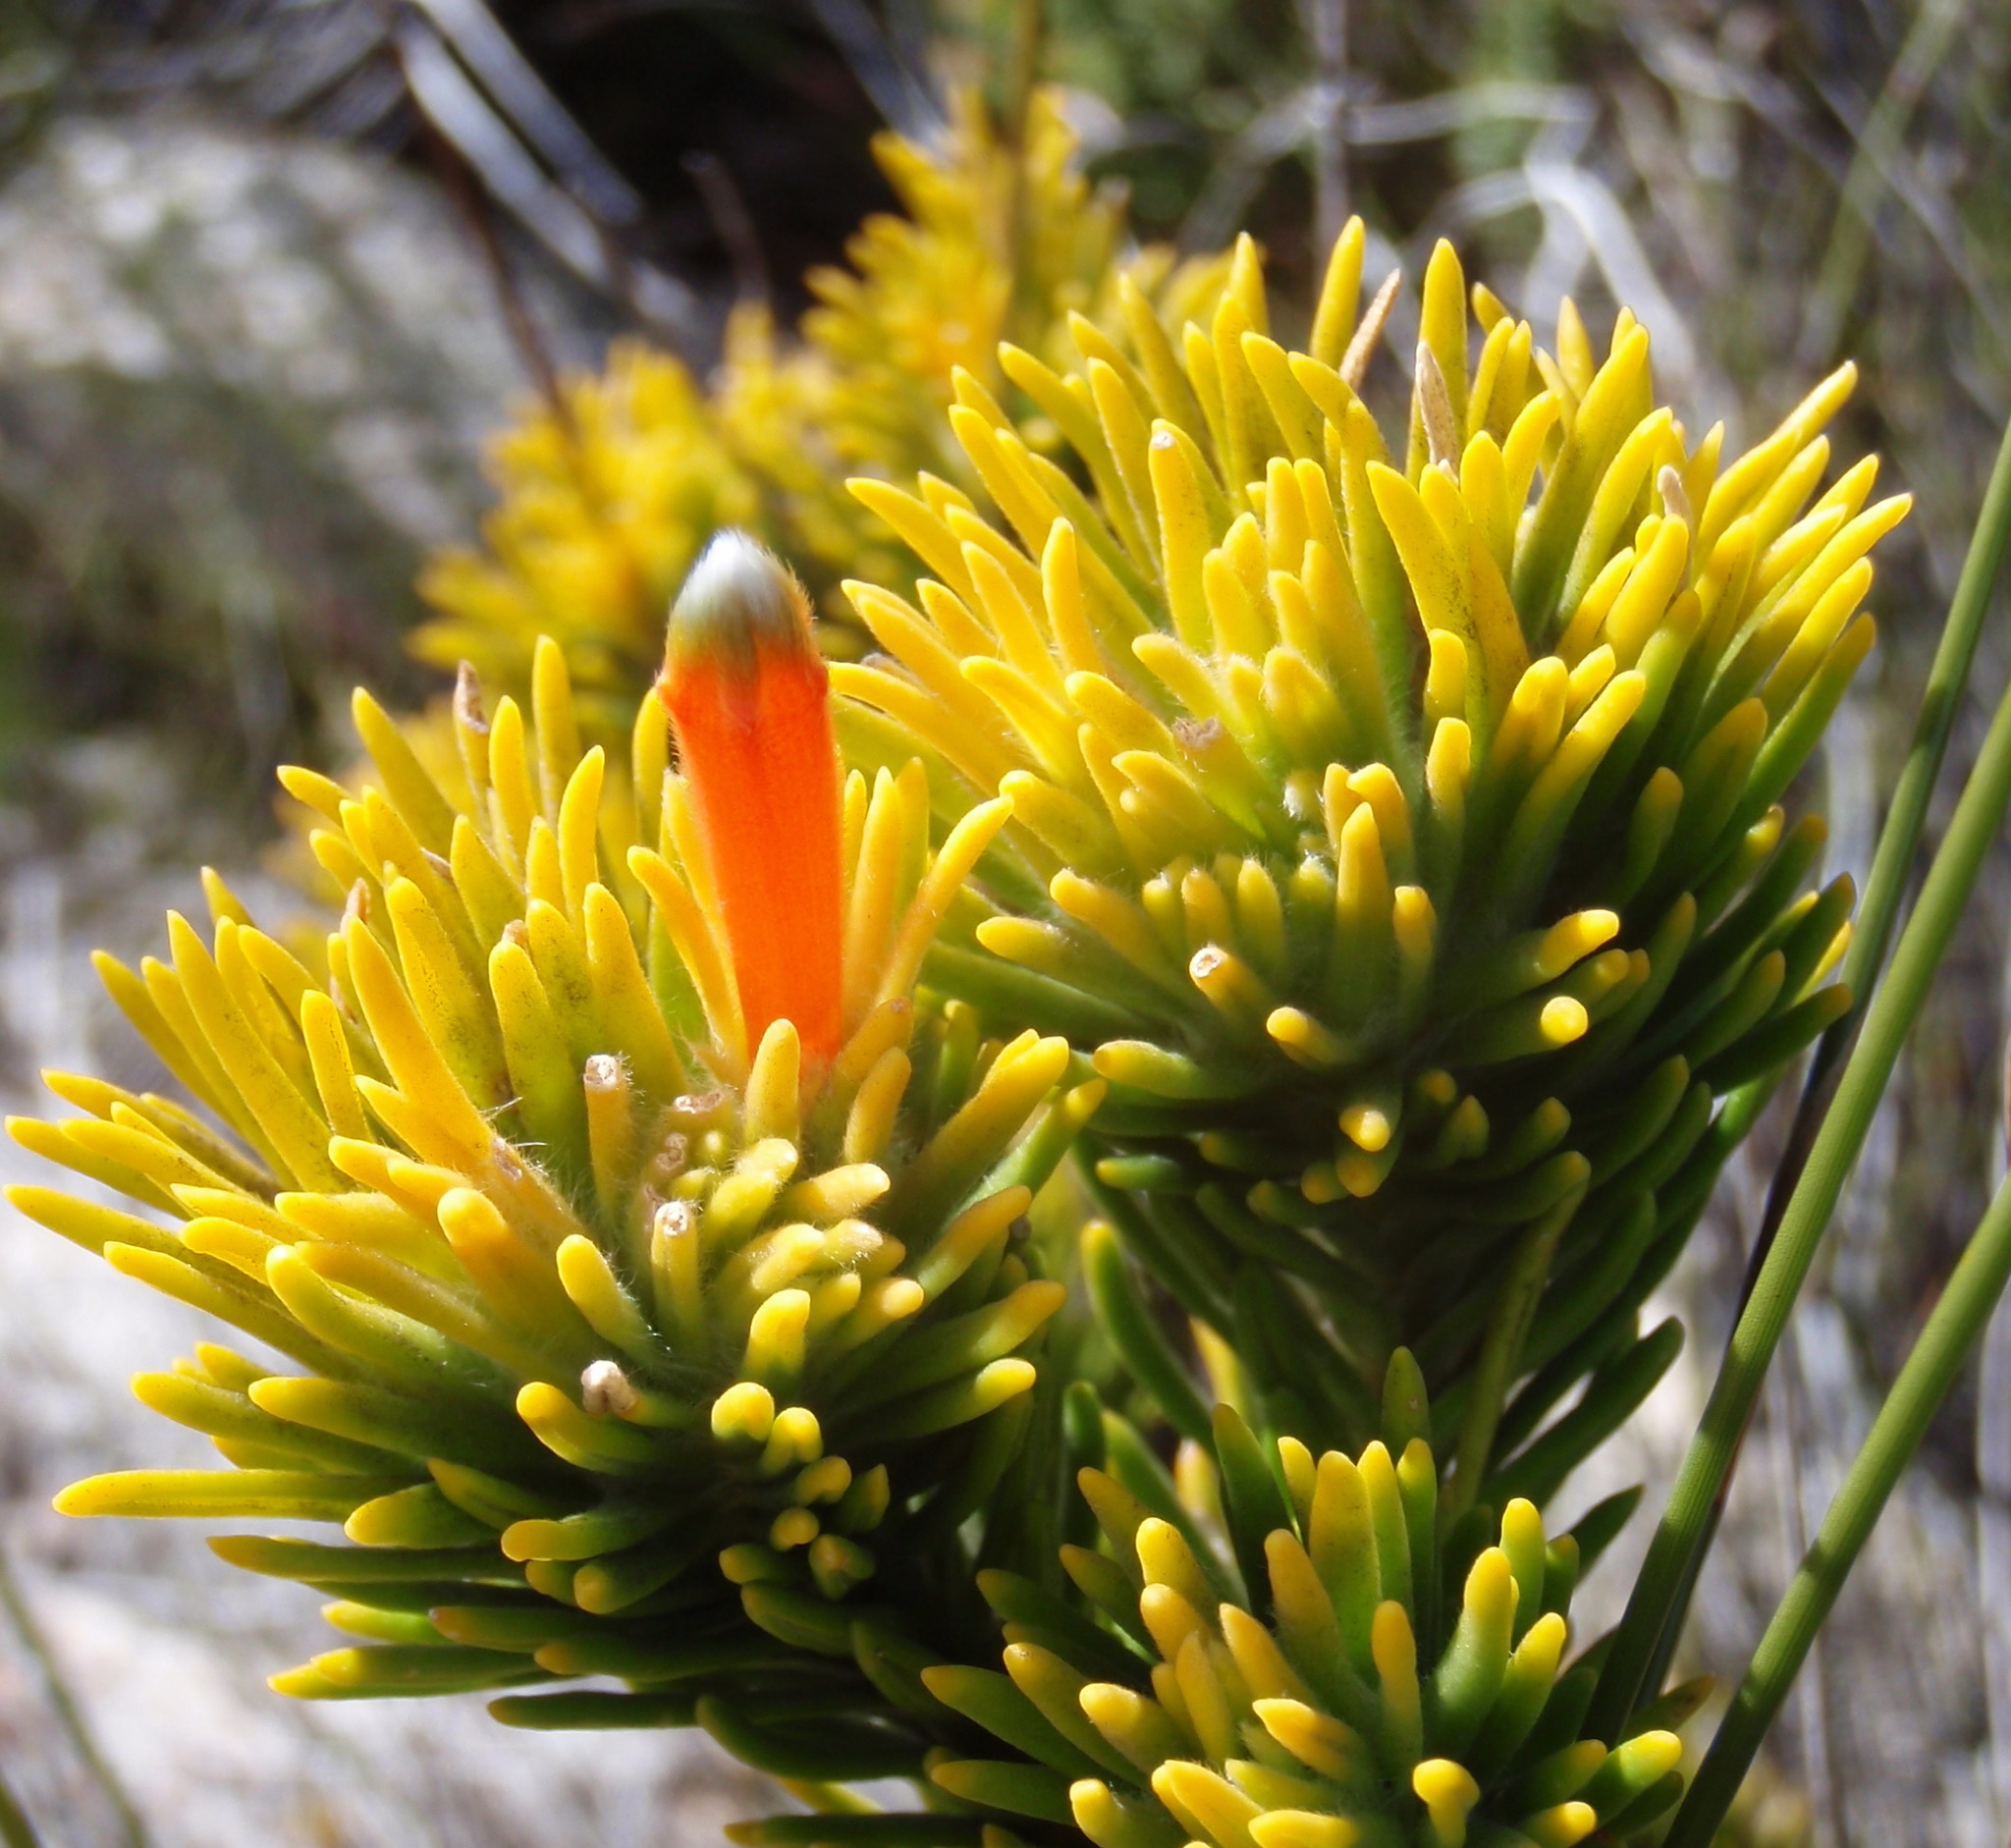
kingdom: Plantae
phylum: Tracheophyta
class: Magnoliopsida
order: Lamiales
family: Stilbaceae
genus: Retzia
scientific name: Retzia capensis
